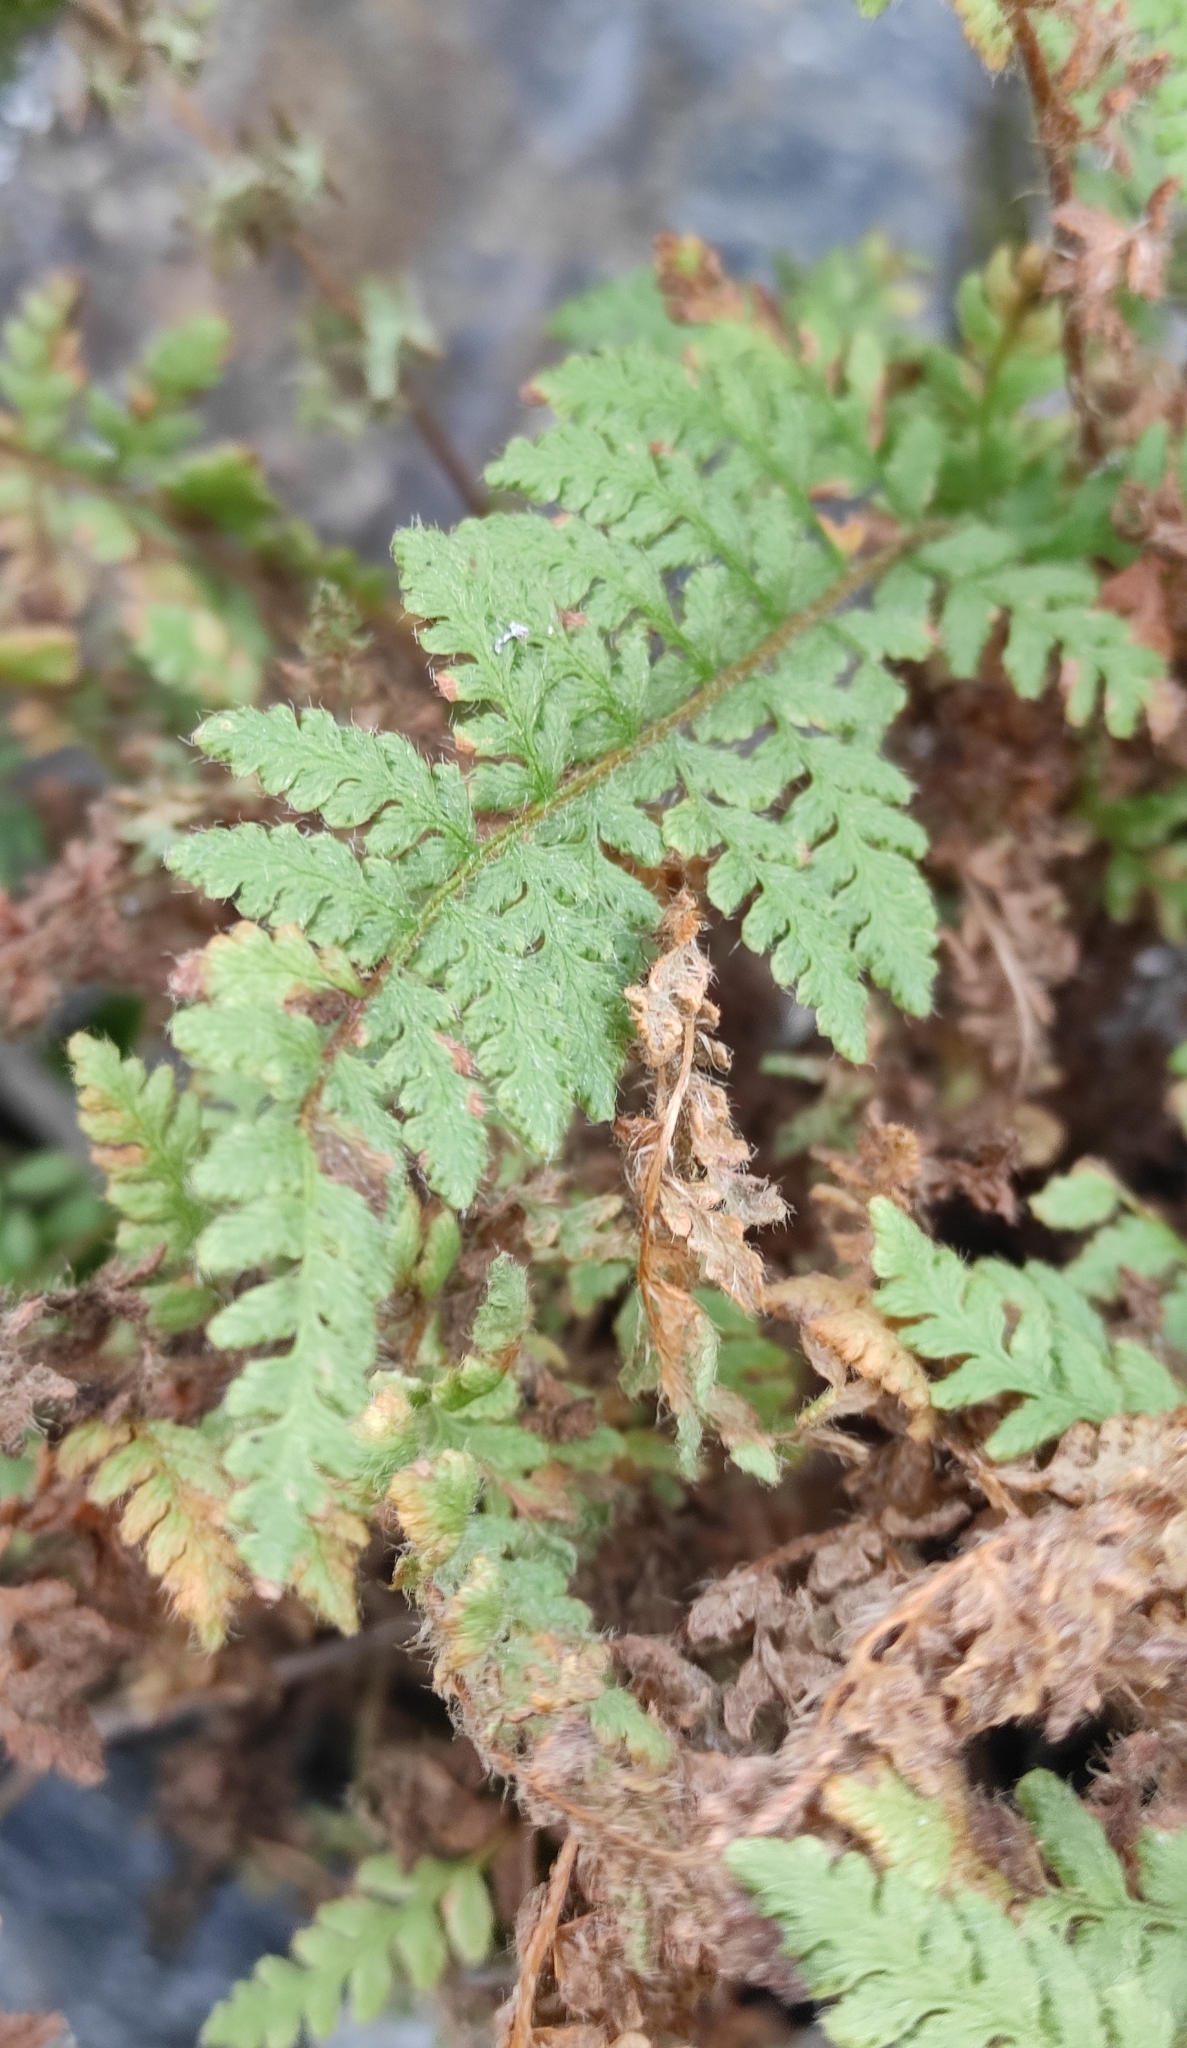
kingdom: Plantae
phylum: Tracheophyta
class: Polypodiopsida
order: Polypodiales
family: Woodsiaceae
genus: Woodsia
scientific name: Woodsia ilvensis
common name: Fragrant woodsia
